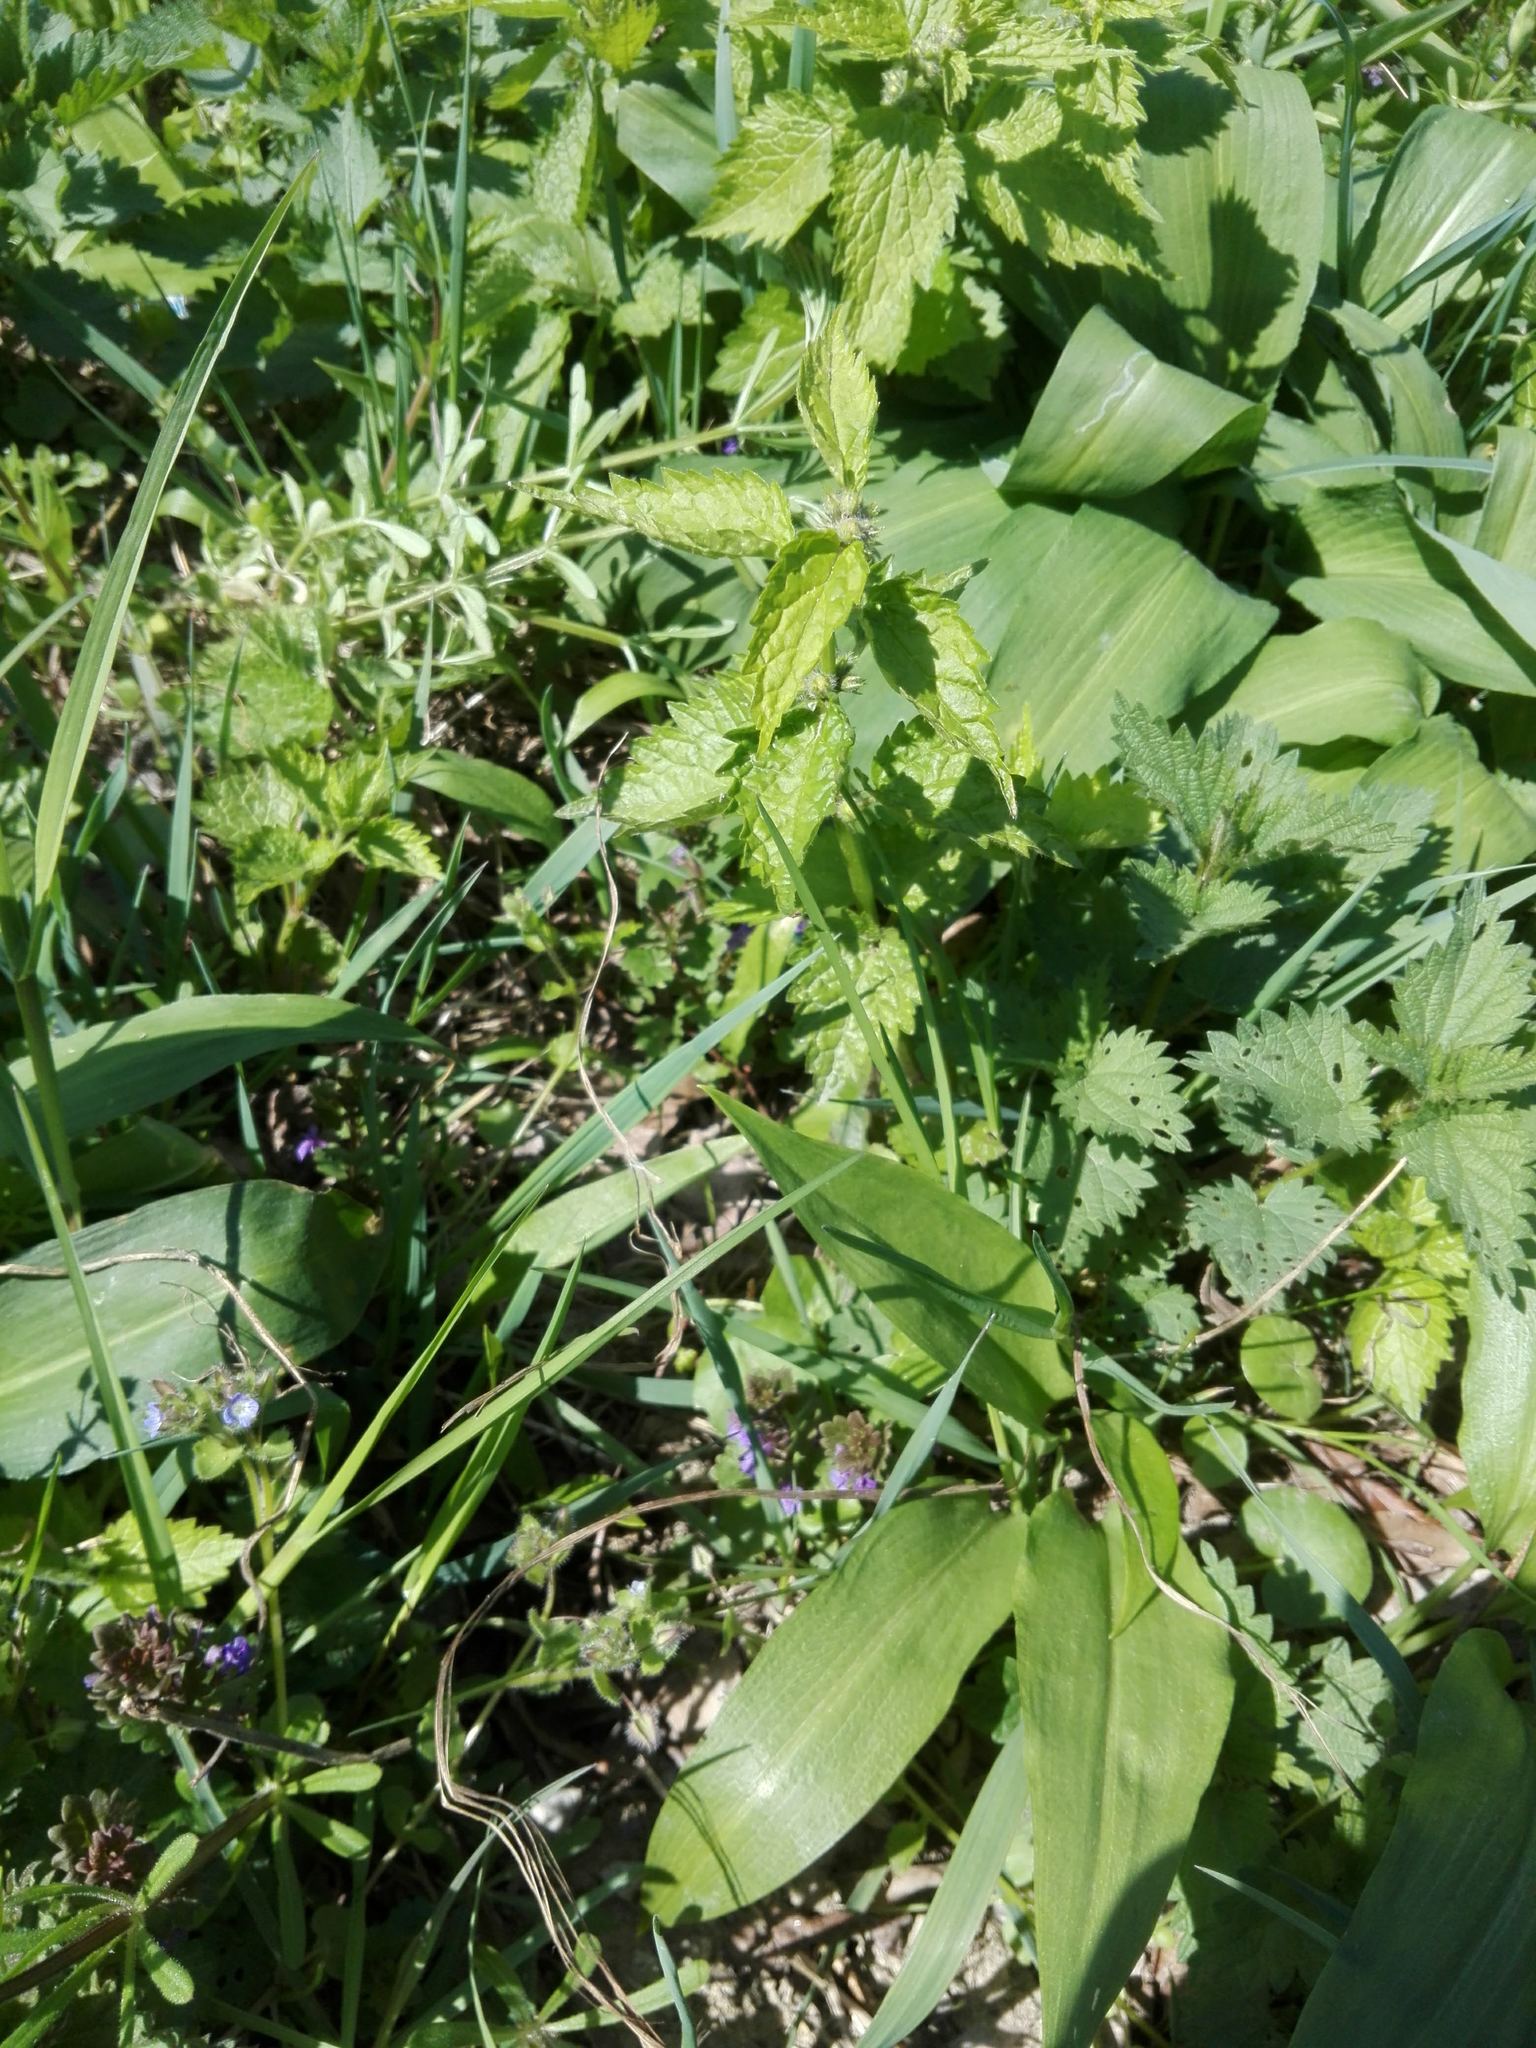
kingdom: Plantae
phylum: Tracheophyta
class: Magnoliopsida
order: Rosales
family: Urticaceae
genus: Urtica
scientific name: Urtica dioica
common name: Common nettle
